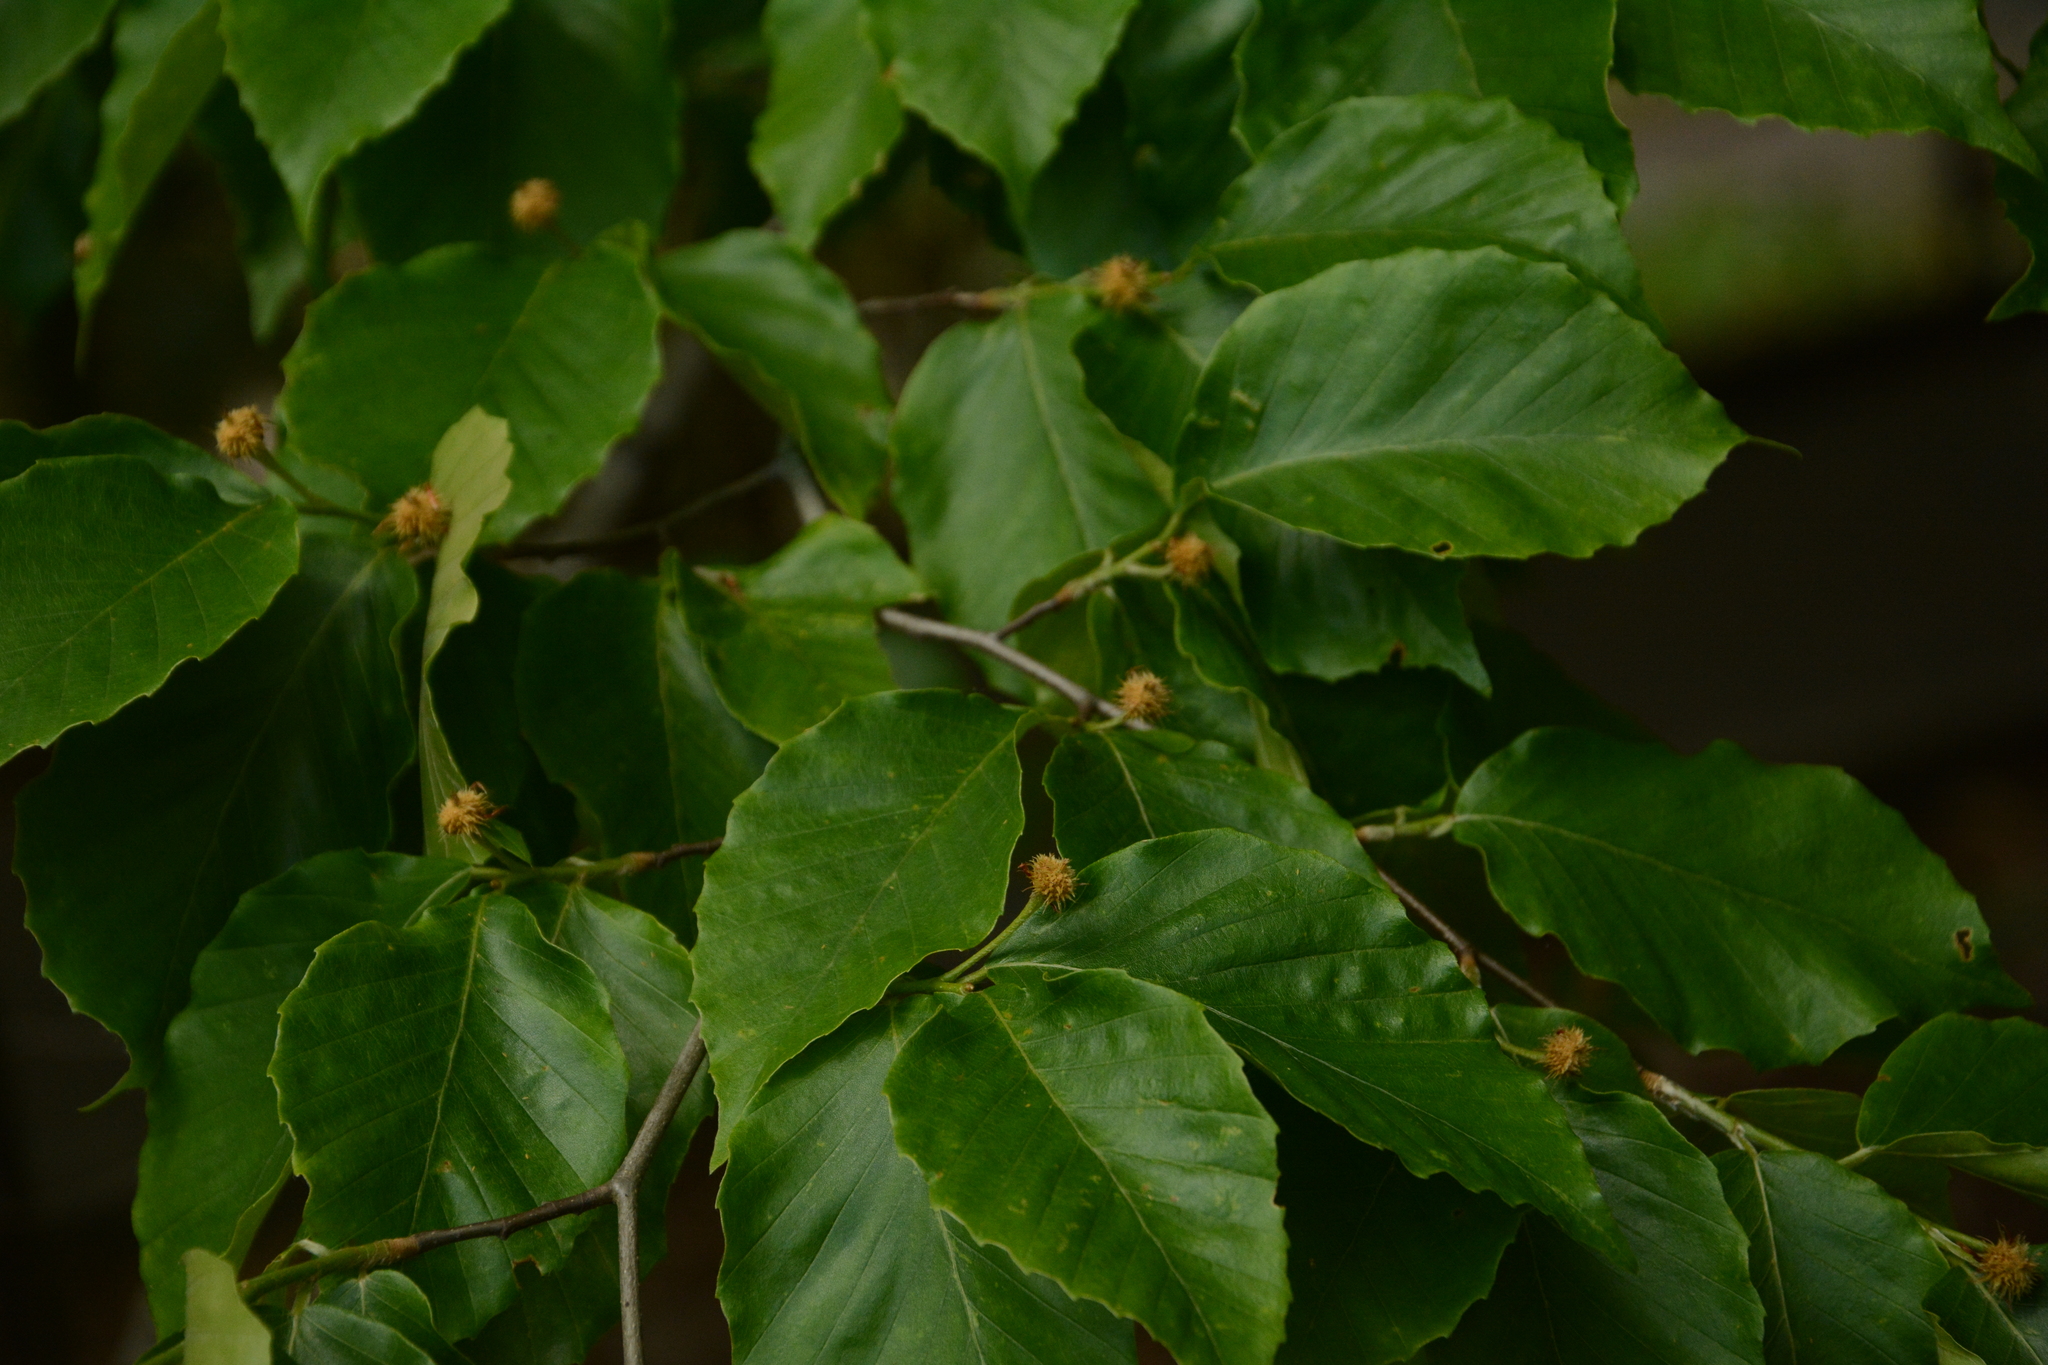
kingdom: Plantae
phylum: Tracheophyta
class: Magnoliopsida
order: Fagales
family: Fagaceae
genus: Fagus
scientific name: Fagus grandifolia
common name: American beech
